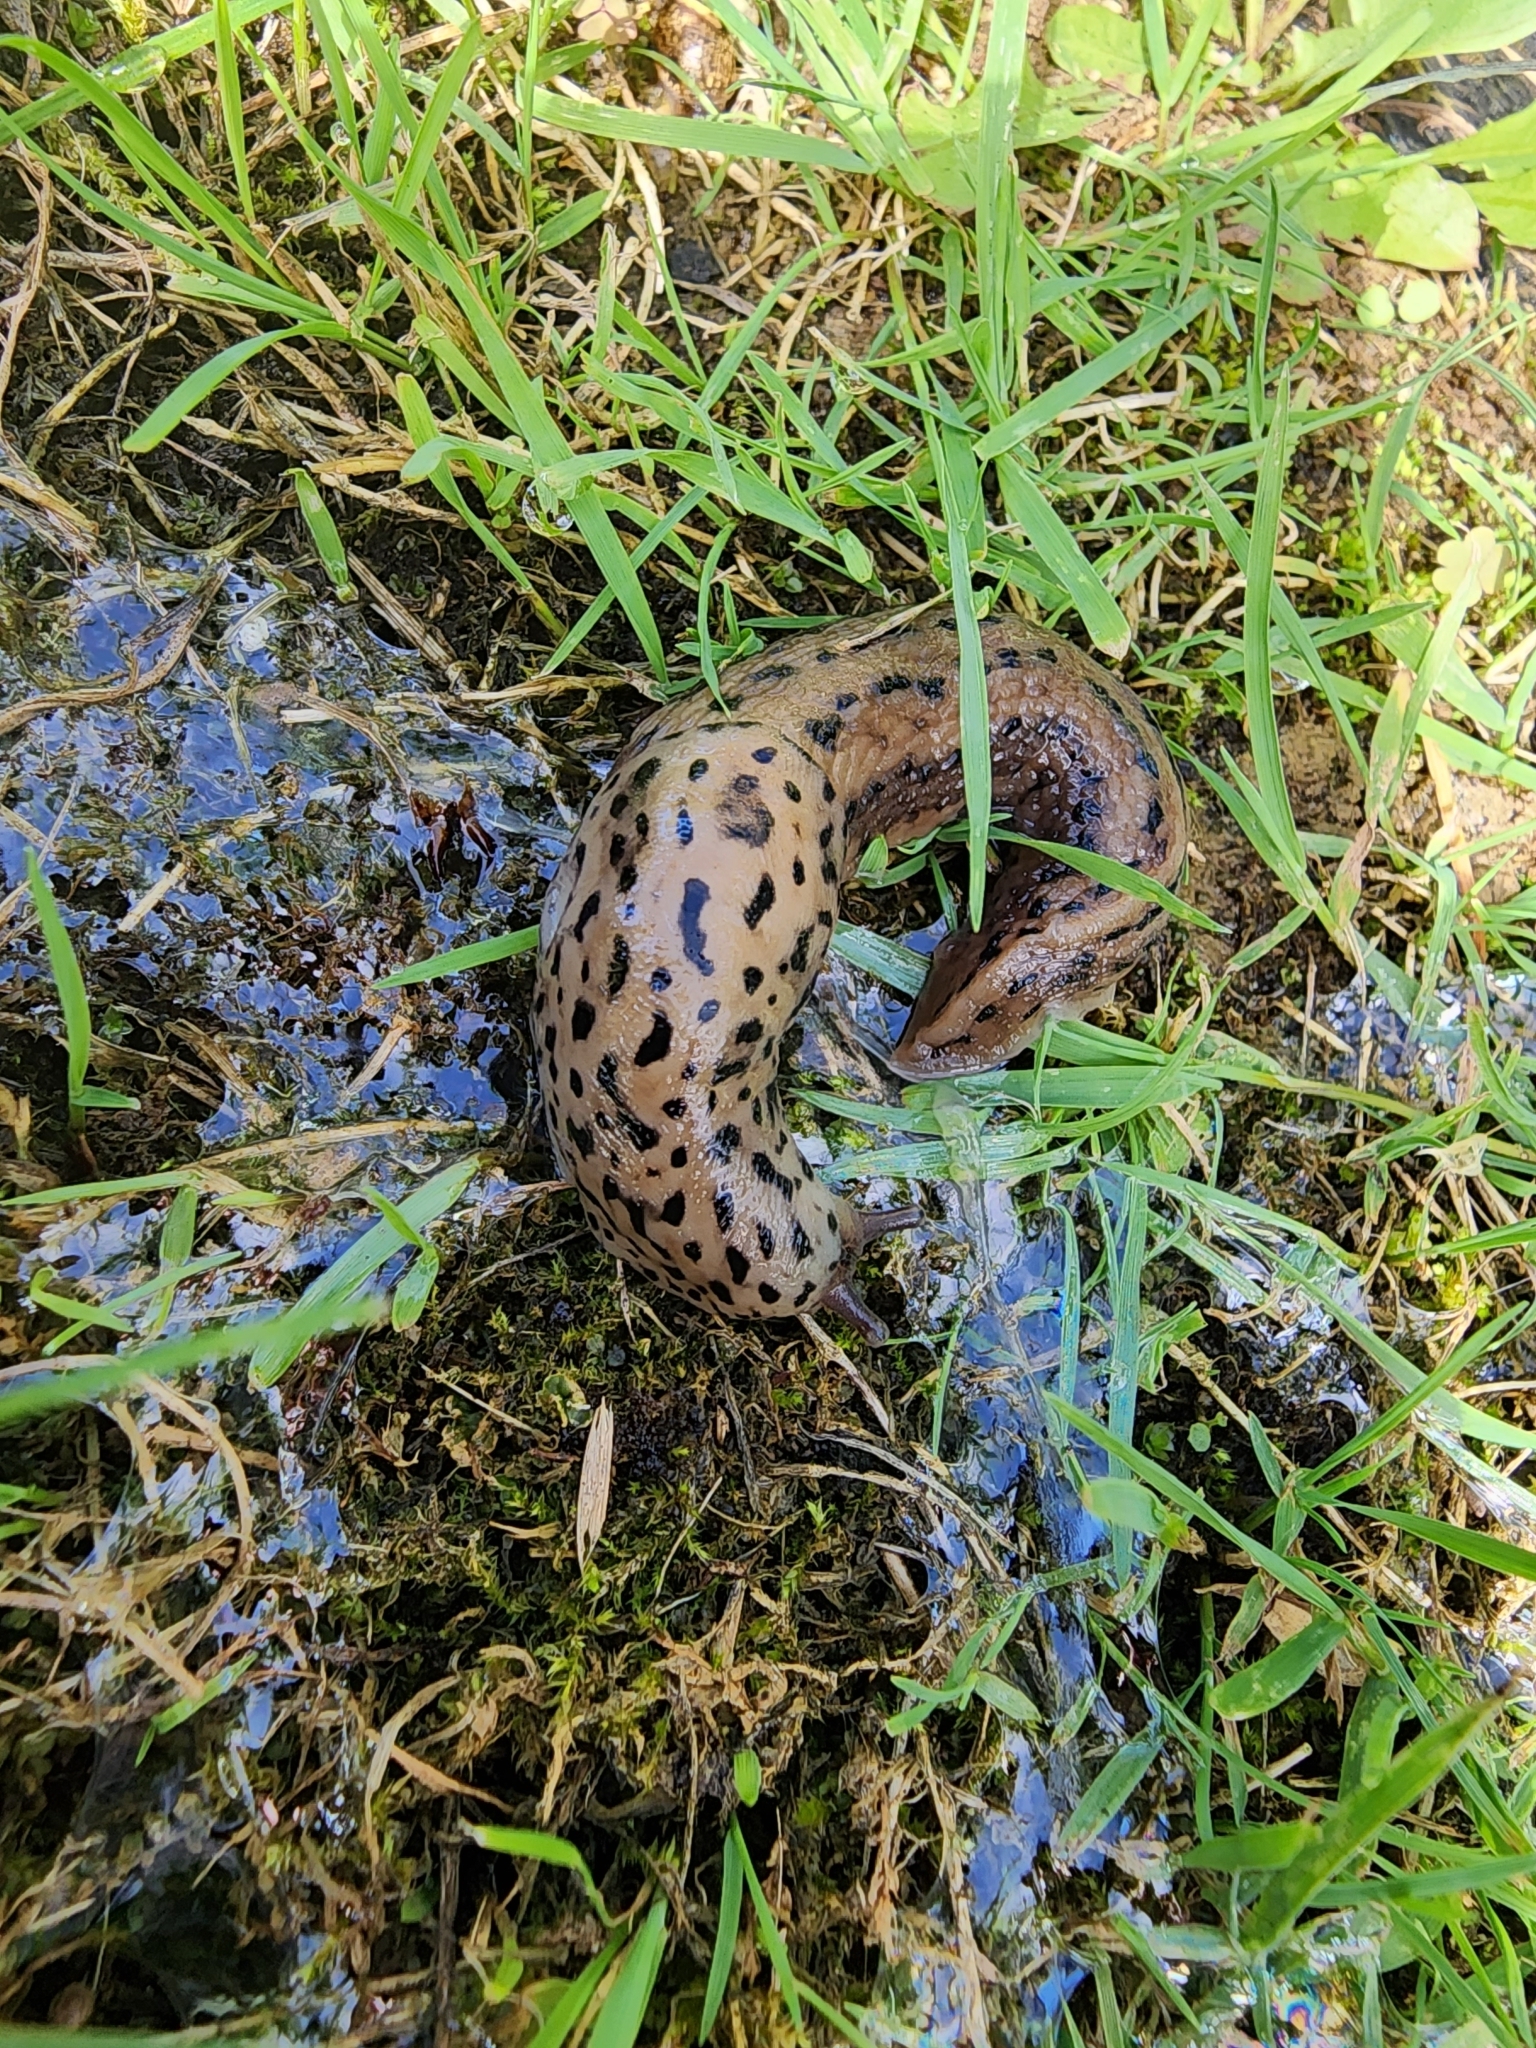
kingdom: Animalia
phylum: Mollusca
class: Gastropoda
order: Stylommatophora
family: Limacidae
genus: Limax
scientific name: Limax maximus
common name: Great grey slug
